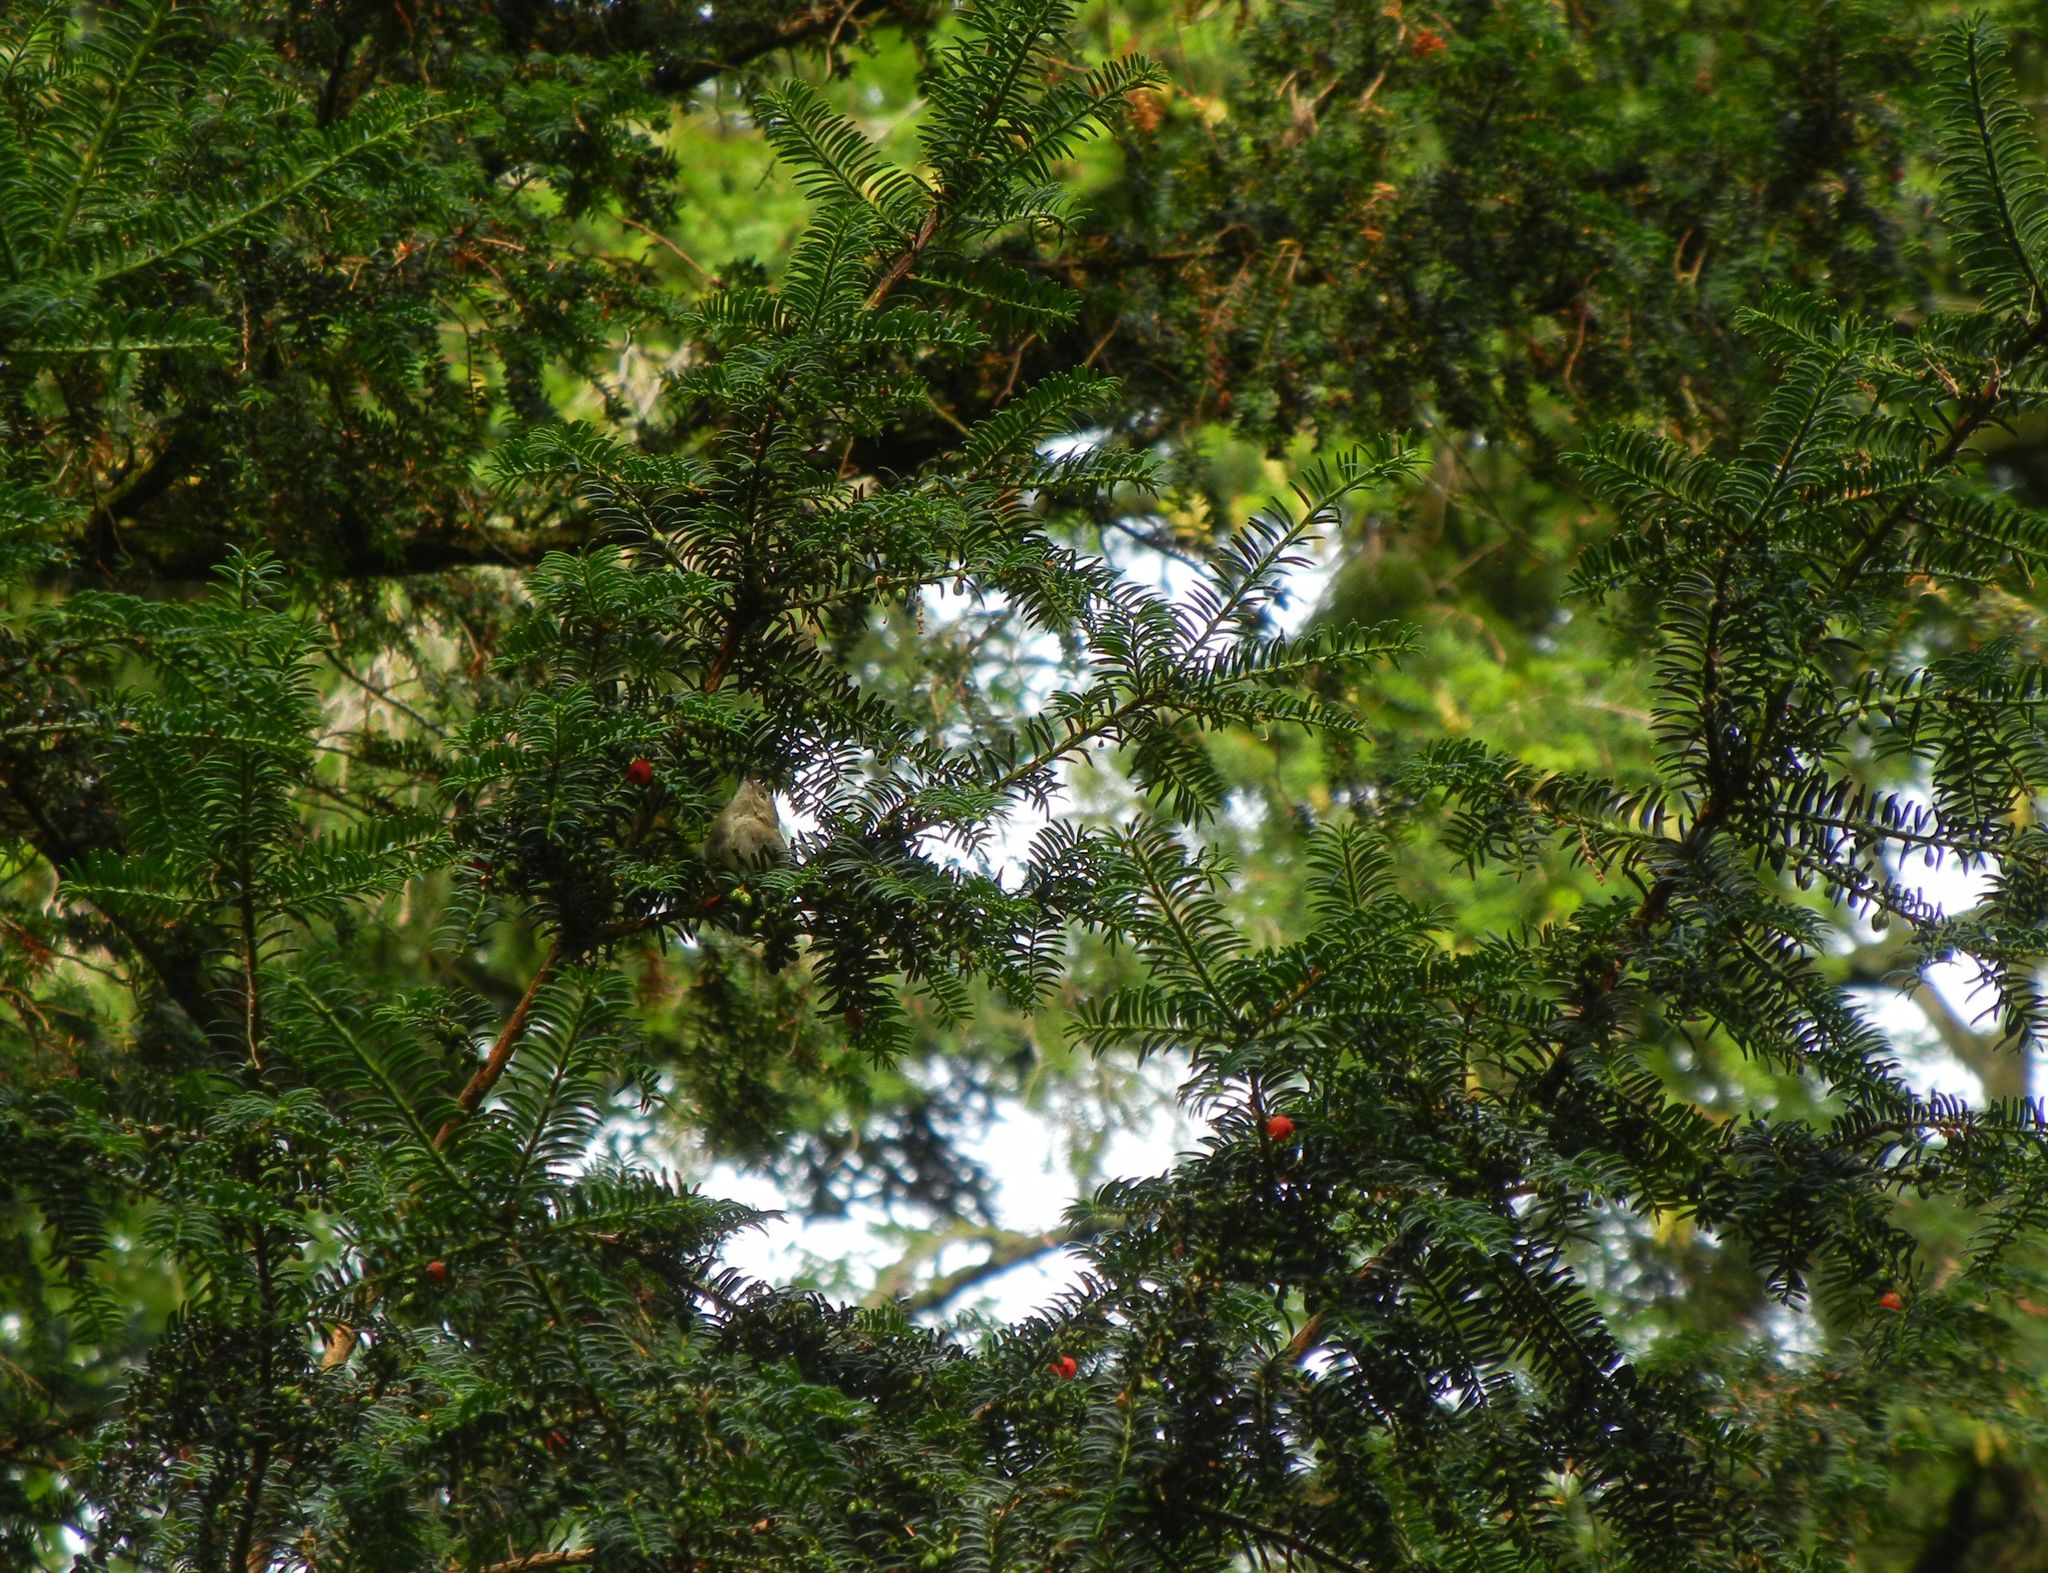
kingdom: Plantae
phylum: Tracheophyta
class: Pinopsida
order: Pinales
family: Taxaceae
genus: Taxus
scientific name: Taxus baccata
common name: Yew
